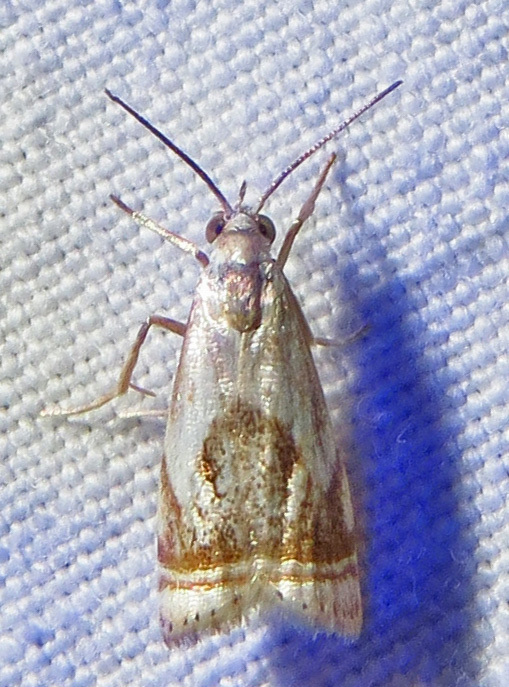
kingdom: Animalia
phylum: Arthropoda
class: Insecta
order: Lepidoptera
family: Crambidae
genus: Microcrambus
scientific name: Microcrambus elegans
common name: Elegant grass-veneer
